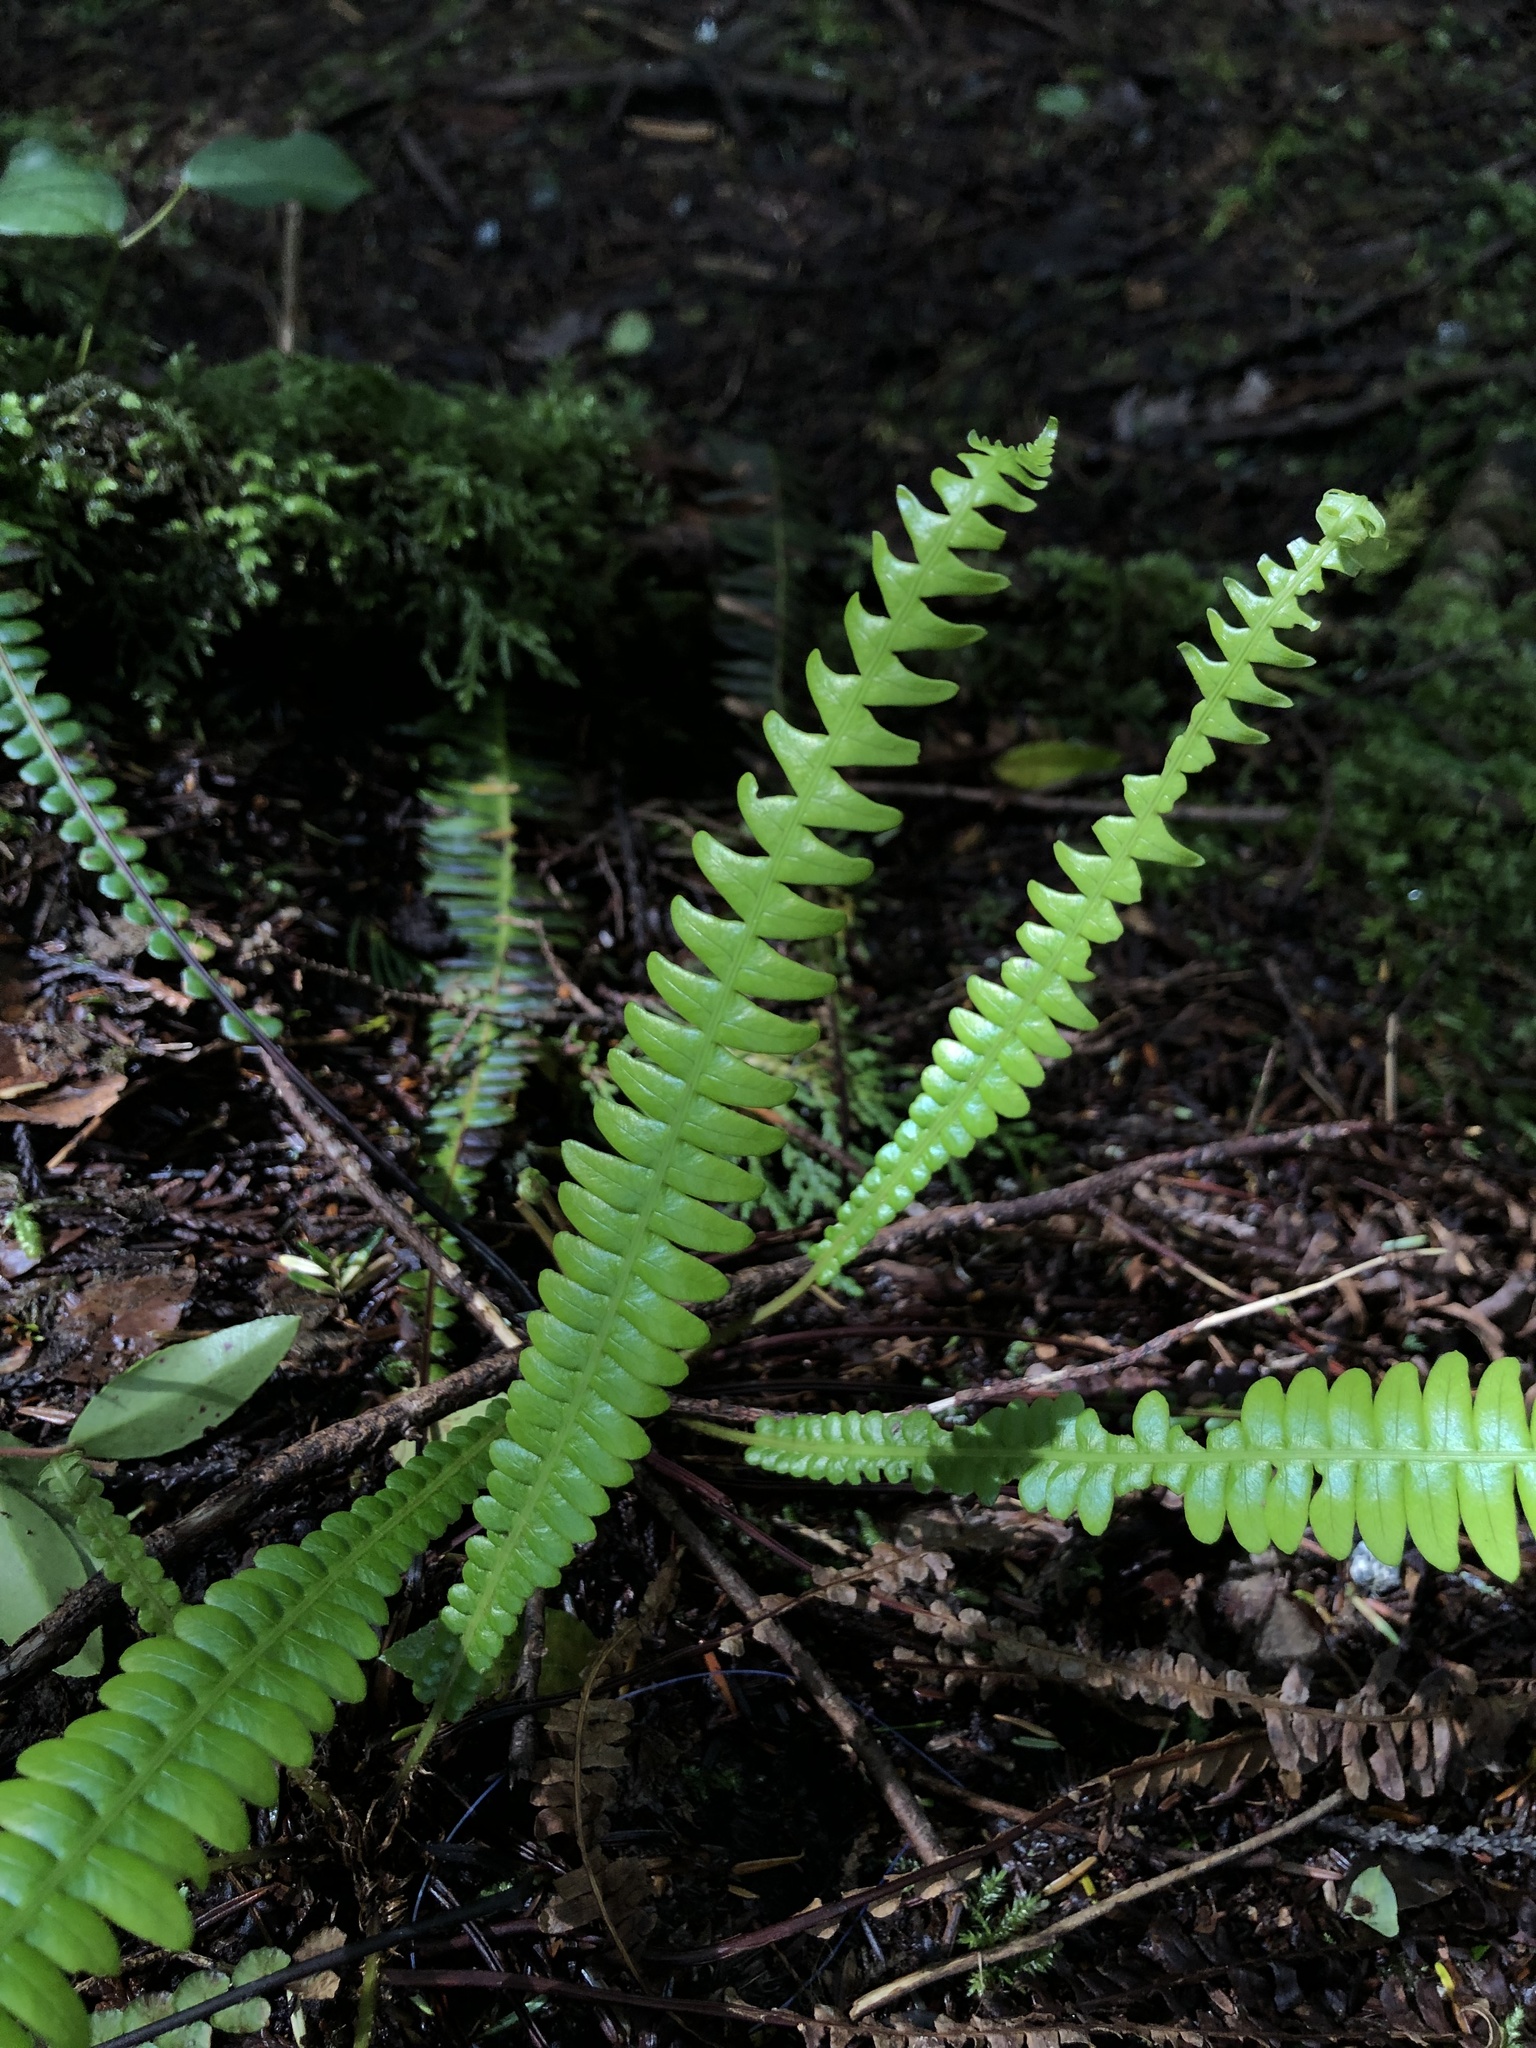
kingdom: Plantae
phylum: Tracheophyta
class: Polypodiopsida
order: Polypodiales
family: Blechnaceae
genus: Struthiopteris
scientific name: Struthiopteris spicant
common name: Deer fern
